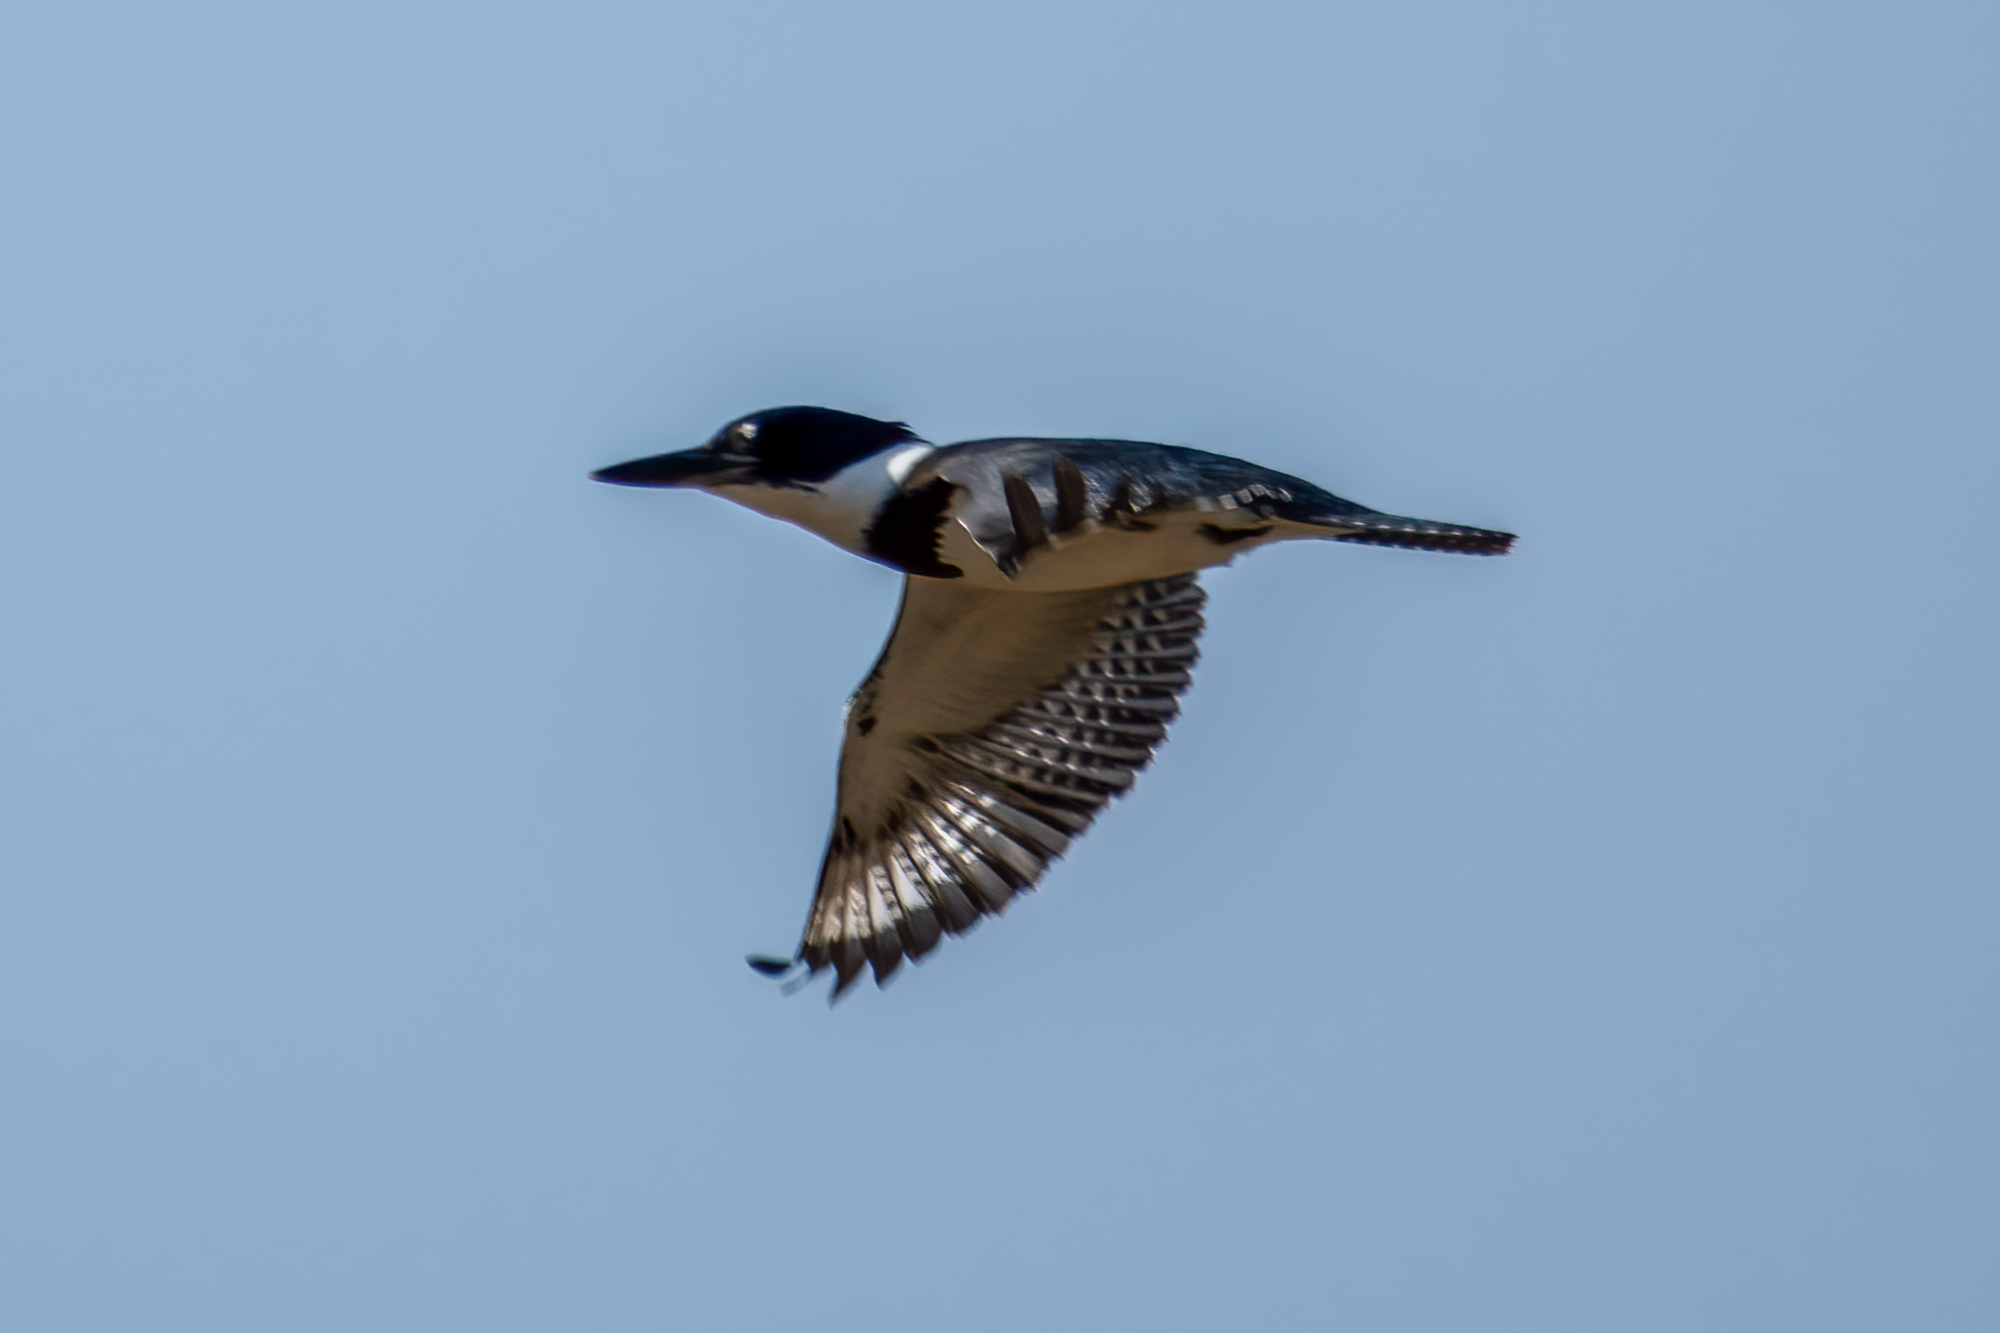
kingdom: Animalia
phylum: Chordata
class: Aves
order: Coraciiformes
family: Alcedinidae
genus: Megaceryle
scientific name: Megaceryle alcyon
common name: Belted kingfisher
